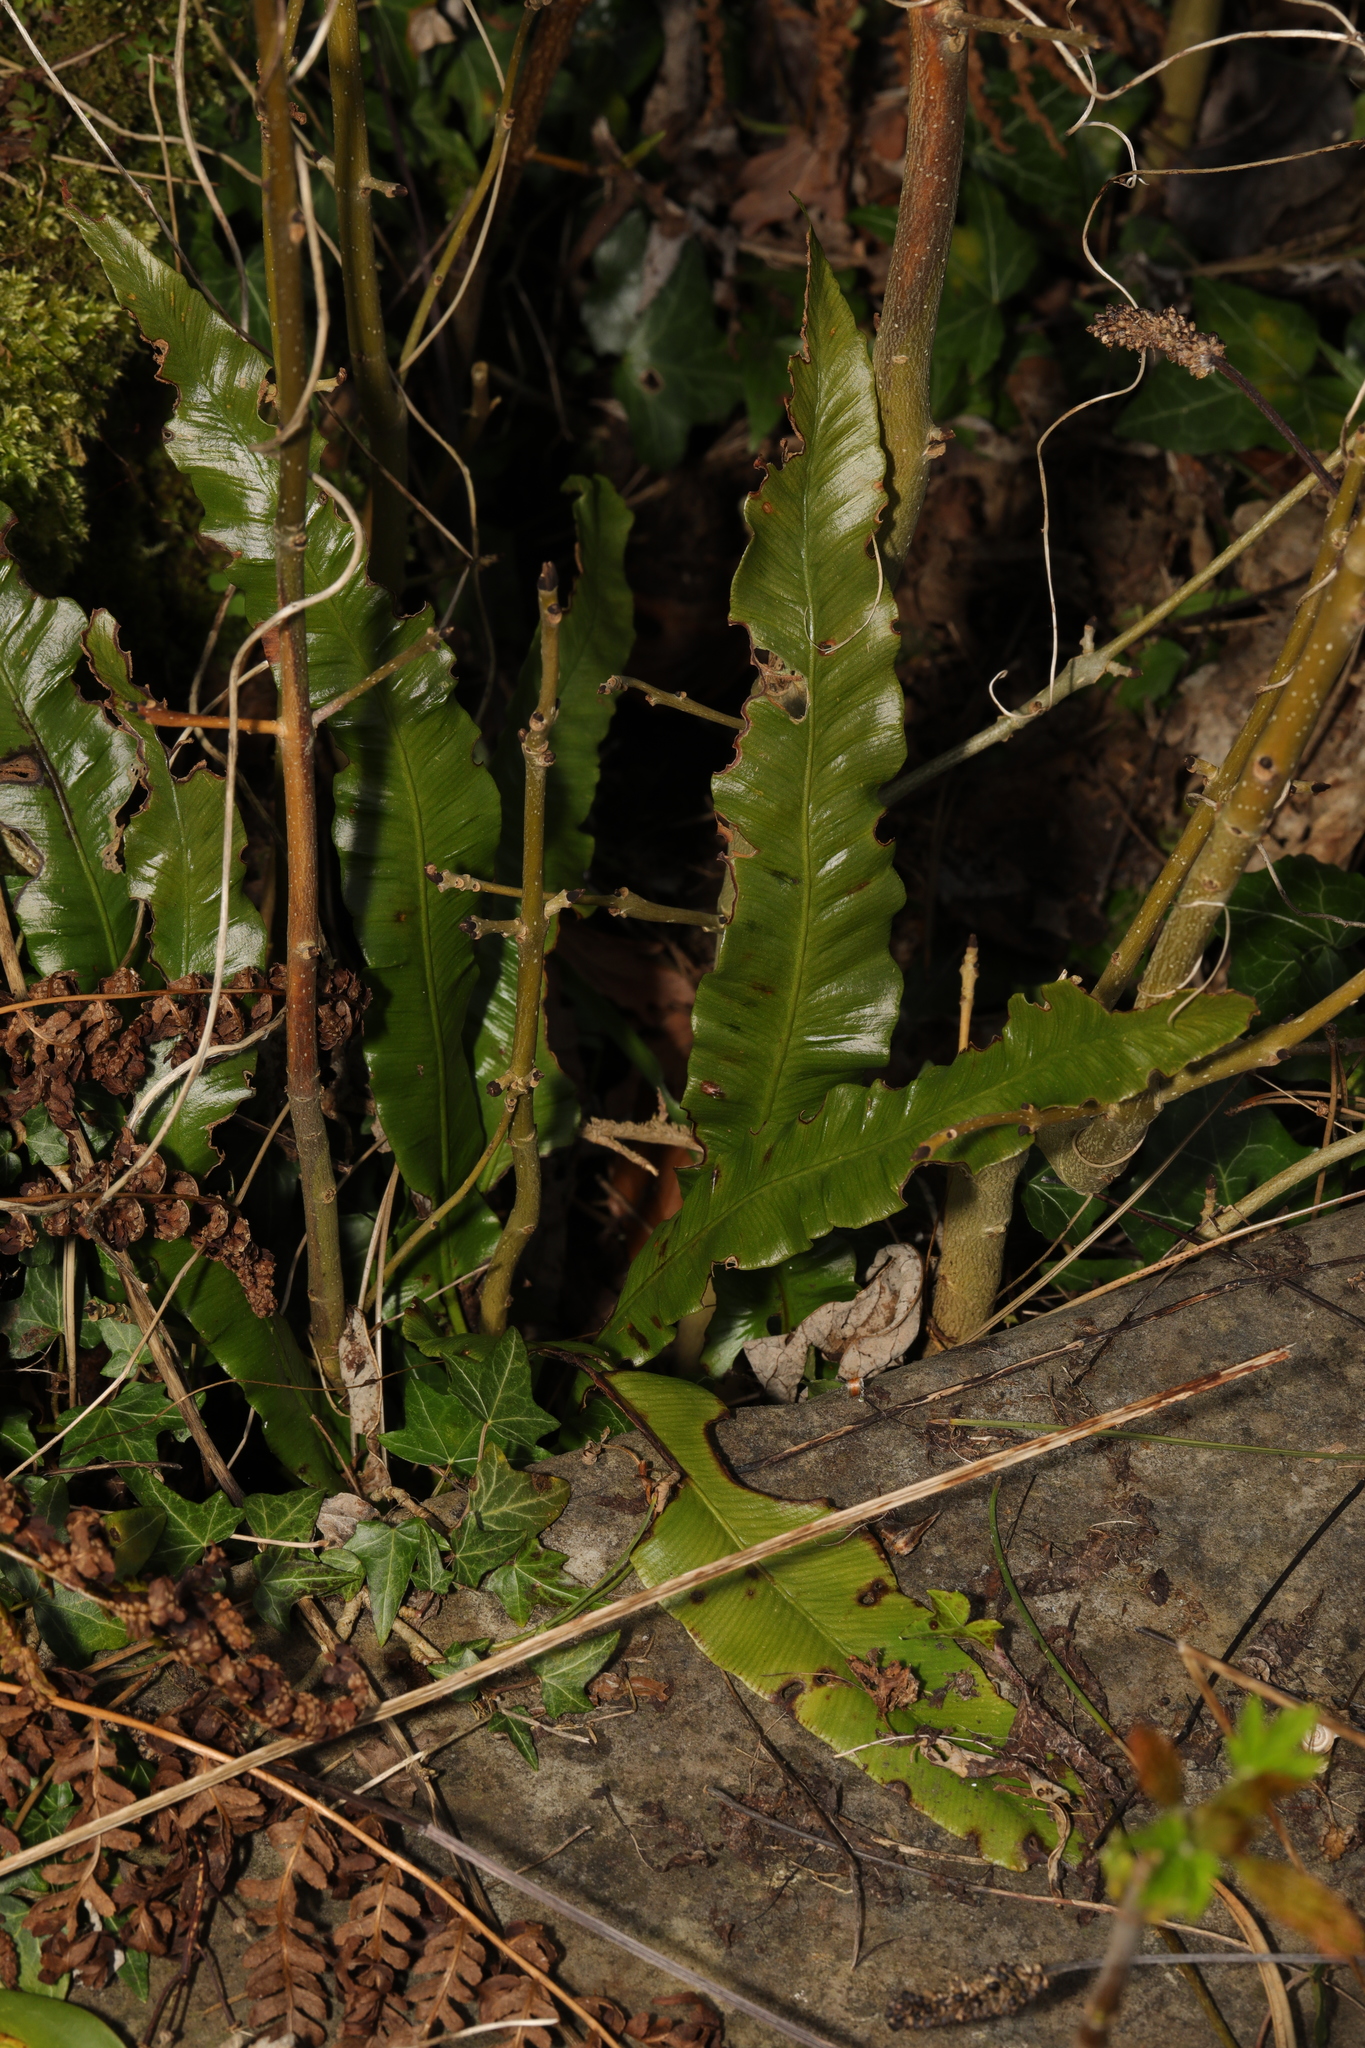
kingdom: Plantae
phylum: Tracheophyta
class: Polypodiopsida
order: Polypodiales
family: Aspleniaceae
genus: Asplenium
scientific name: Asplenium scolopendrium
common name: Hart's-tongue fern
